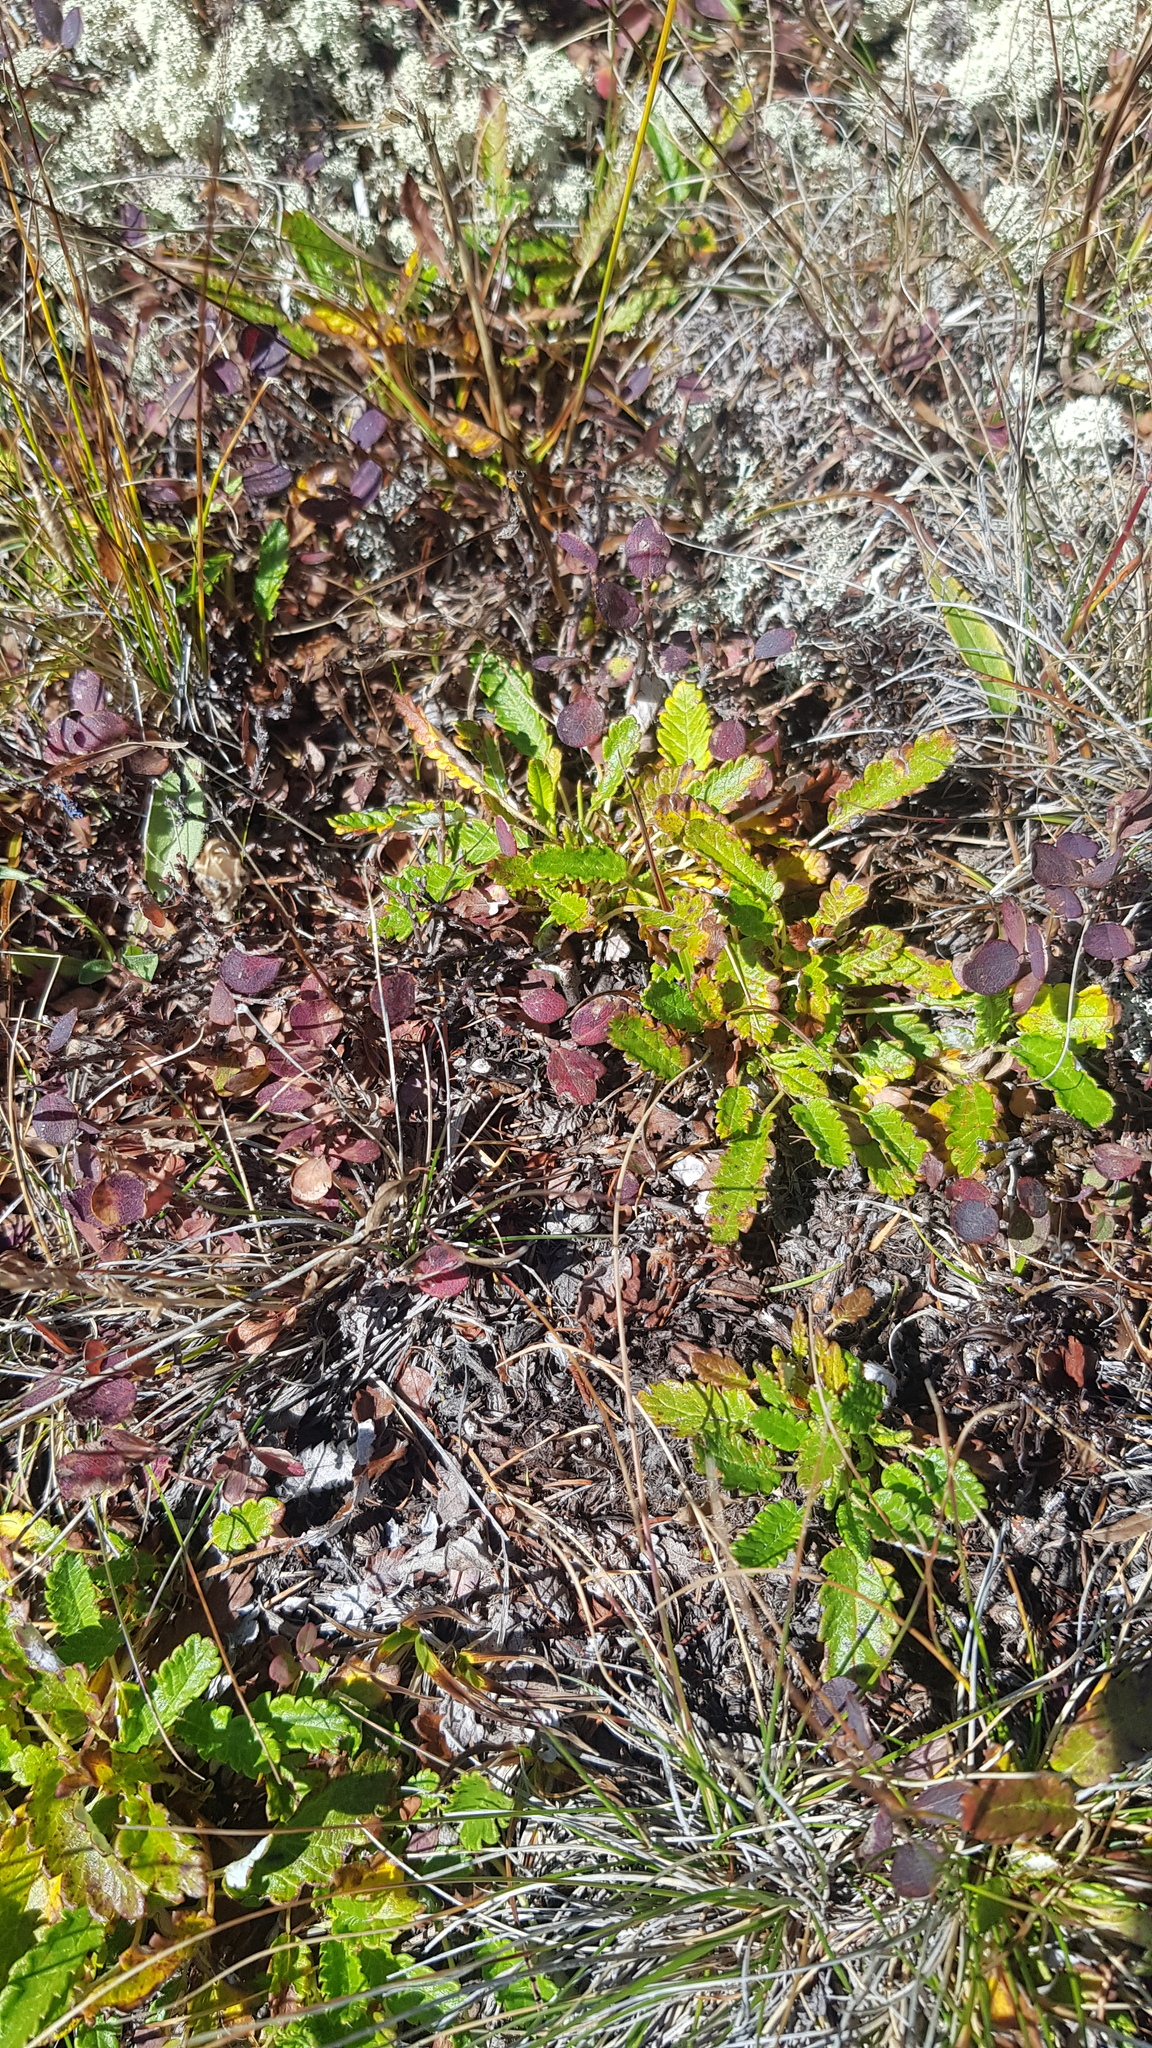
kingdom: Plantae
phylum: Tracheophyta
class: Magnoliopsida
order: Rosales
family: Rosaceae
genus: Dryas
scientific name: Dryas octopetala
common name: Eight-petal mountain-avens
